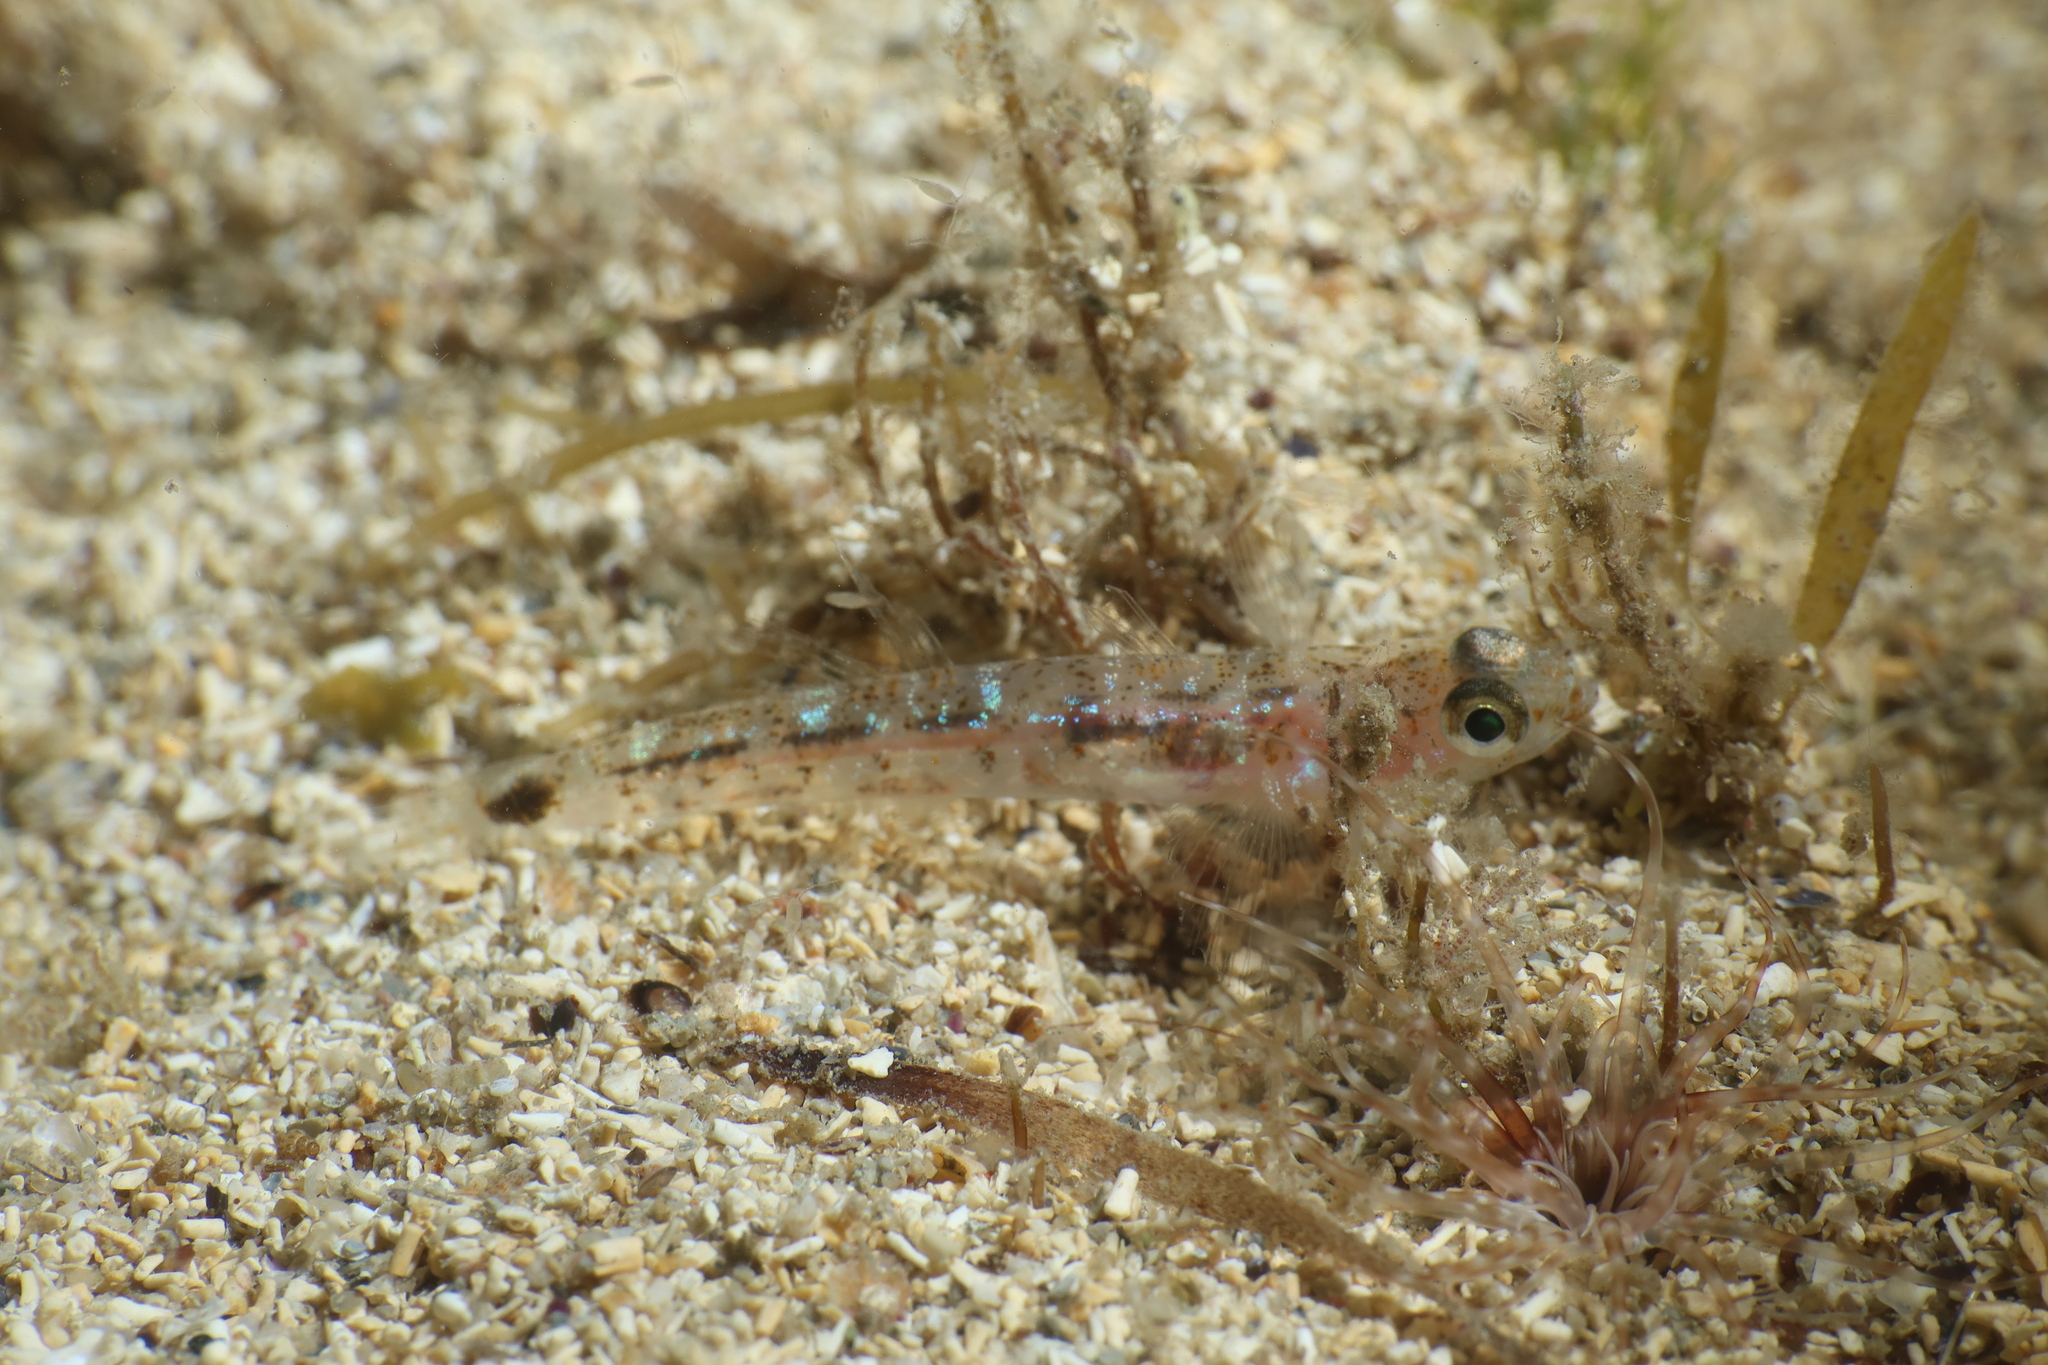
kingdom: Animalia
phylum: Chordata
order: Perciformes
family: Gobiidae
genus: Pseudaphya
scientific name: Pseudaphya ferreri
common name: Ferrer's goby
